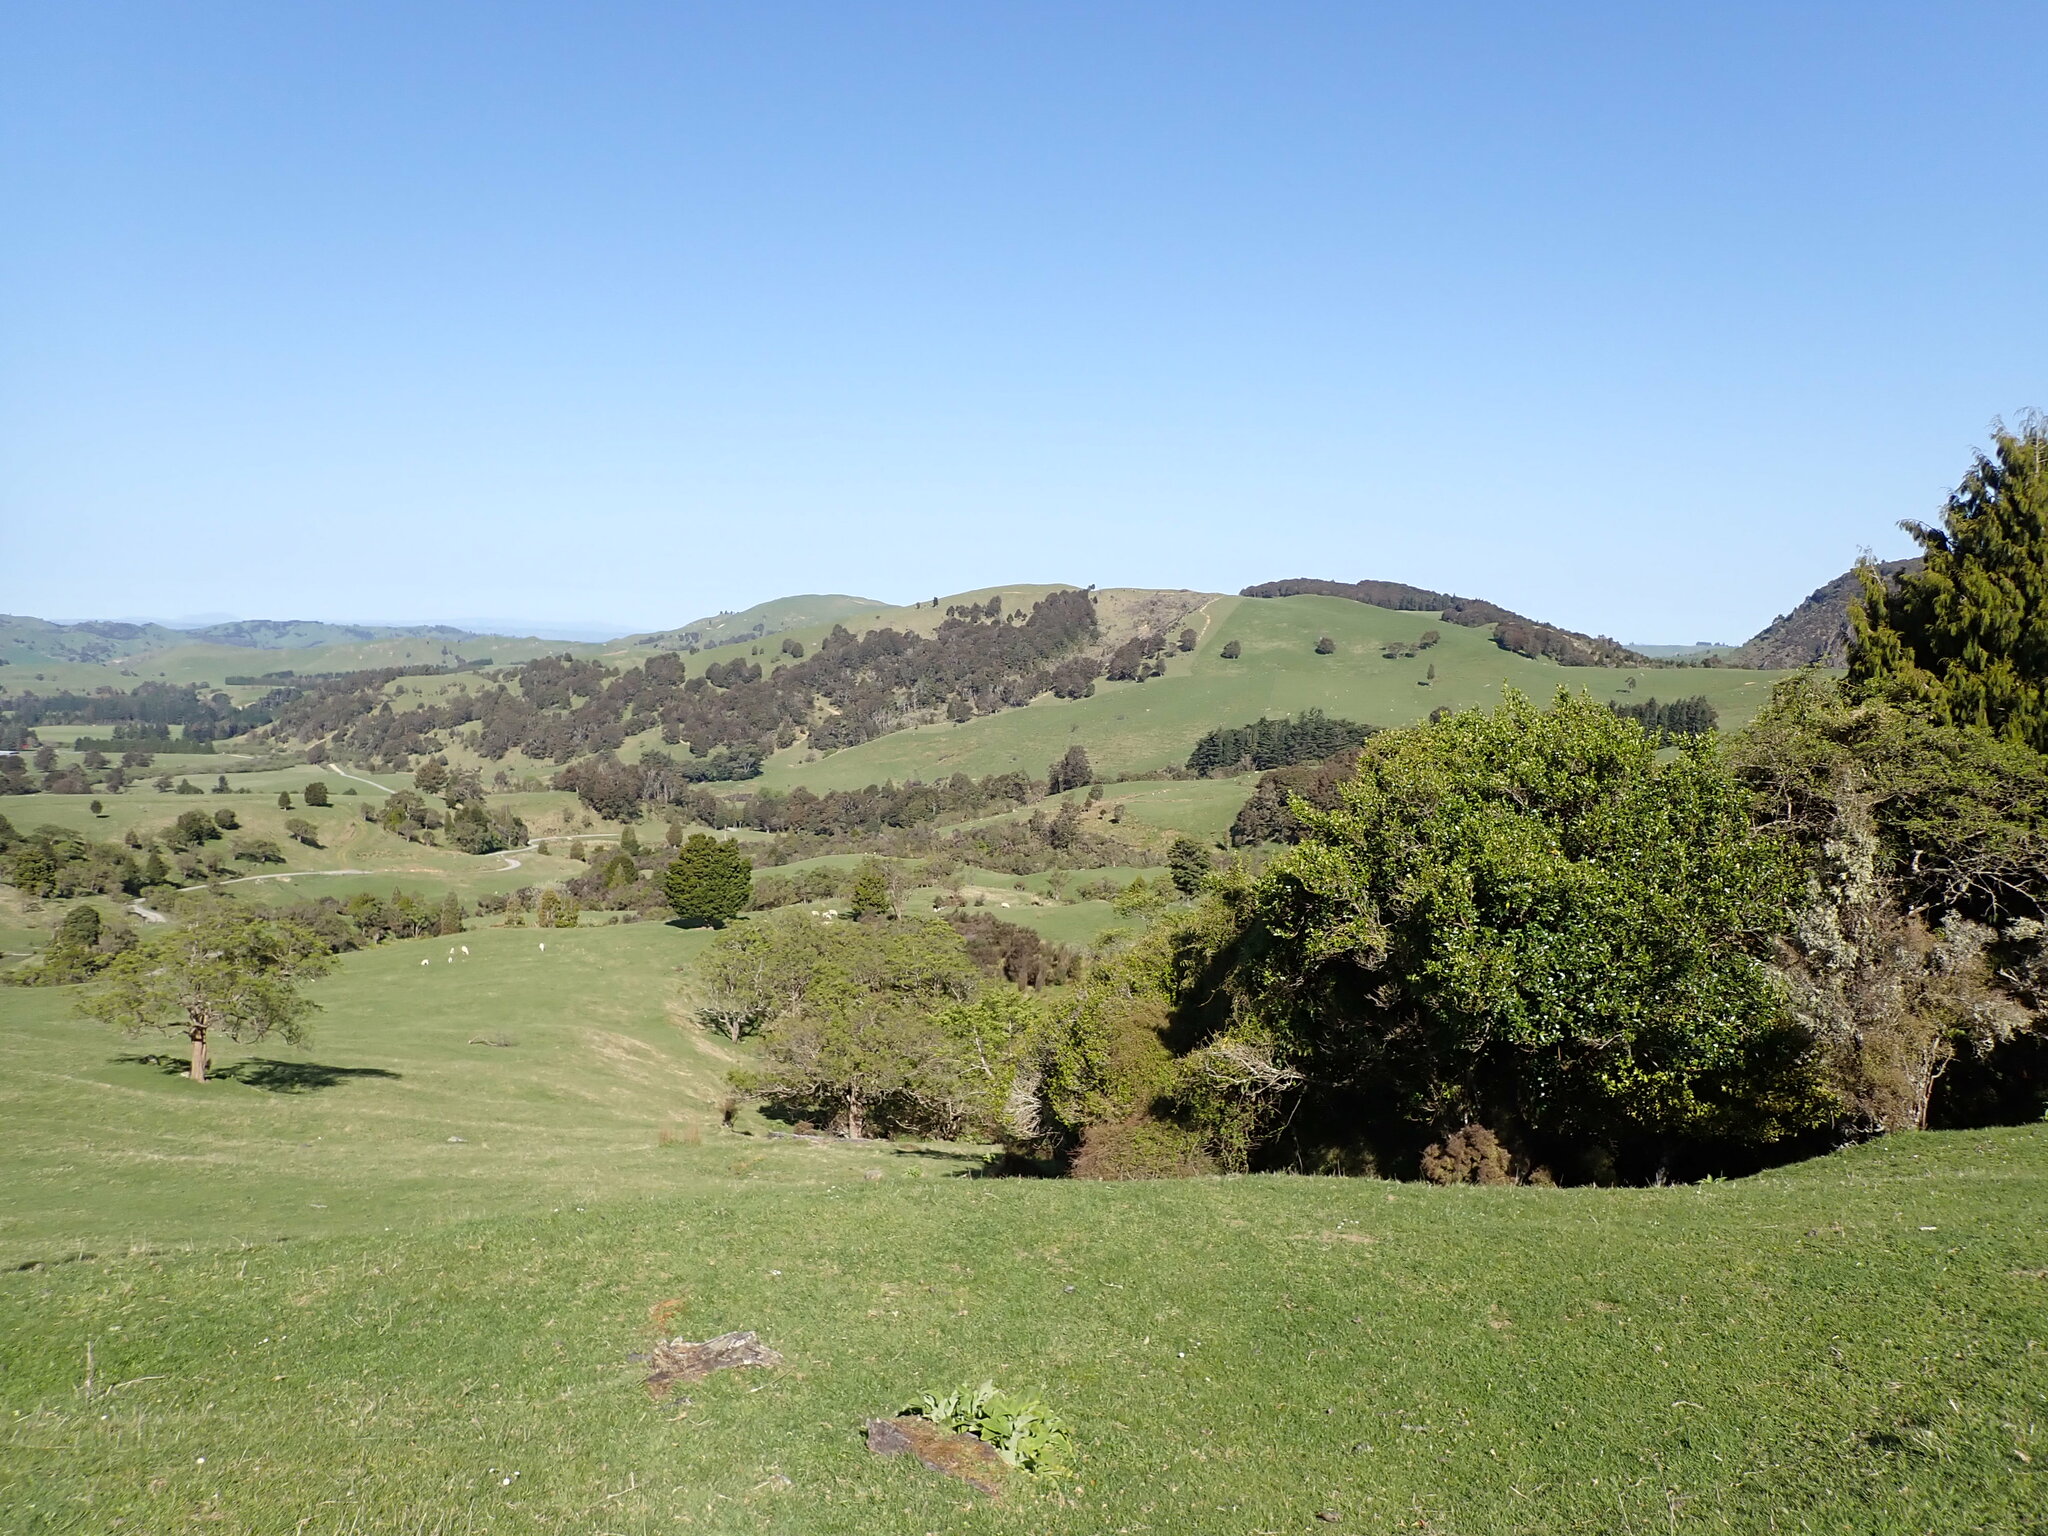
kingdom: Plantae
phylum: Tracheophyta
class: Magnoliopsida
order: Asterales
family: Rousseaceae
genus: Carpodetus
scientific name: Carpodetus serratus
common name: White mapau
